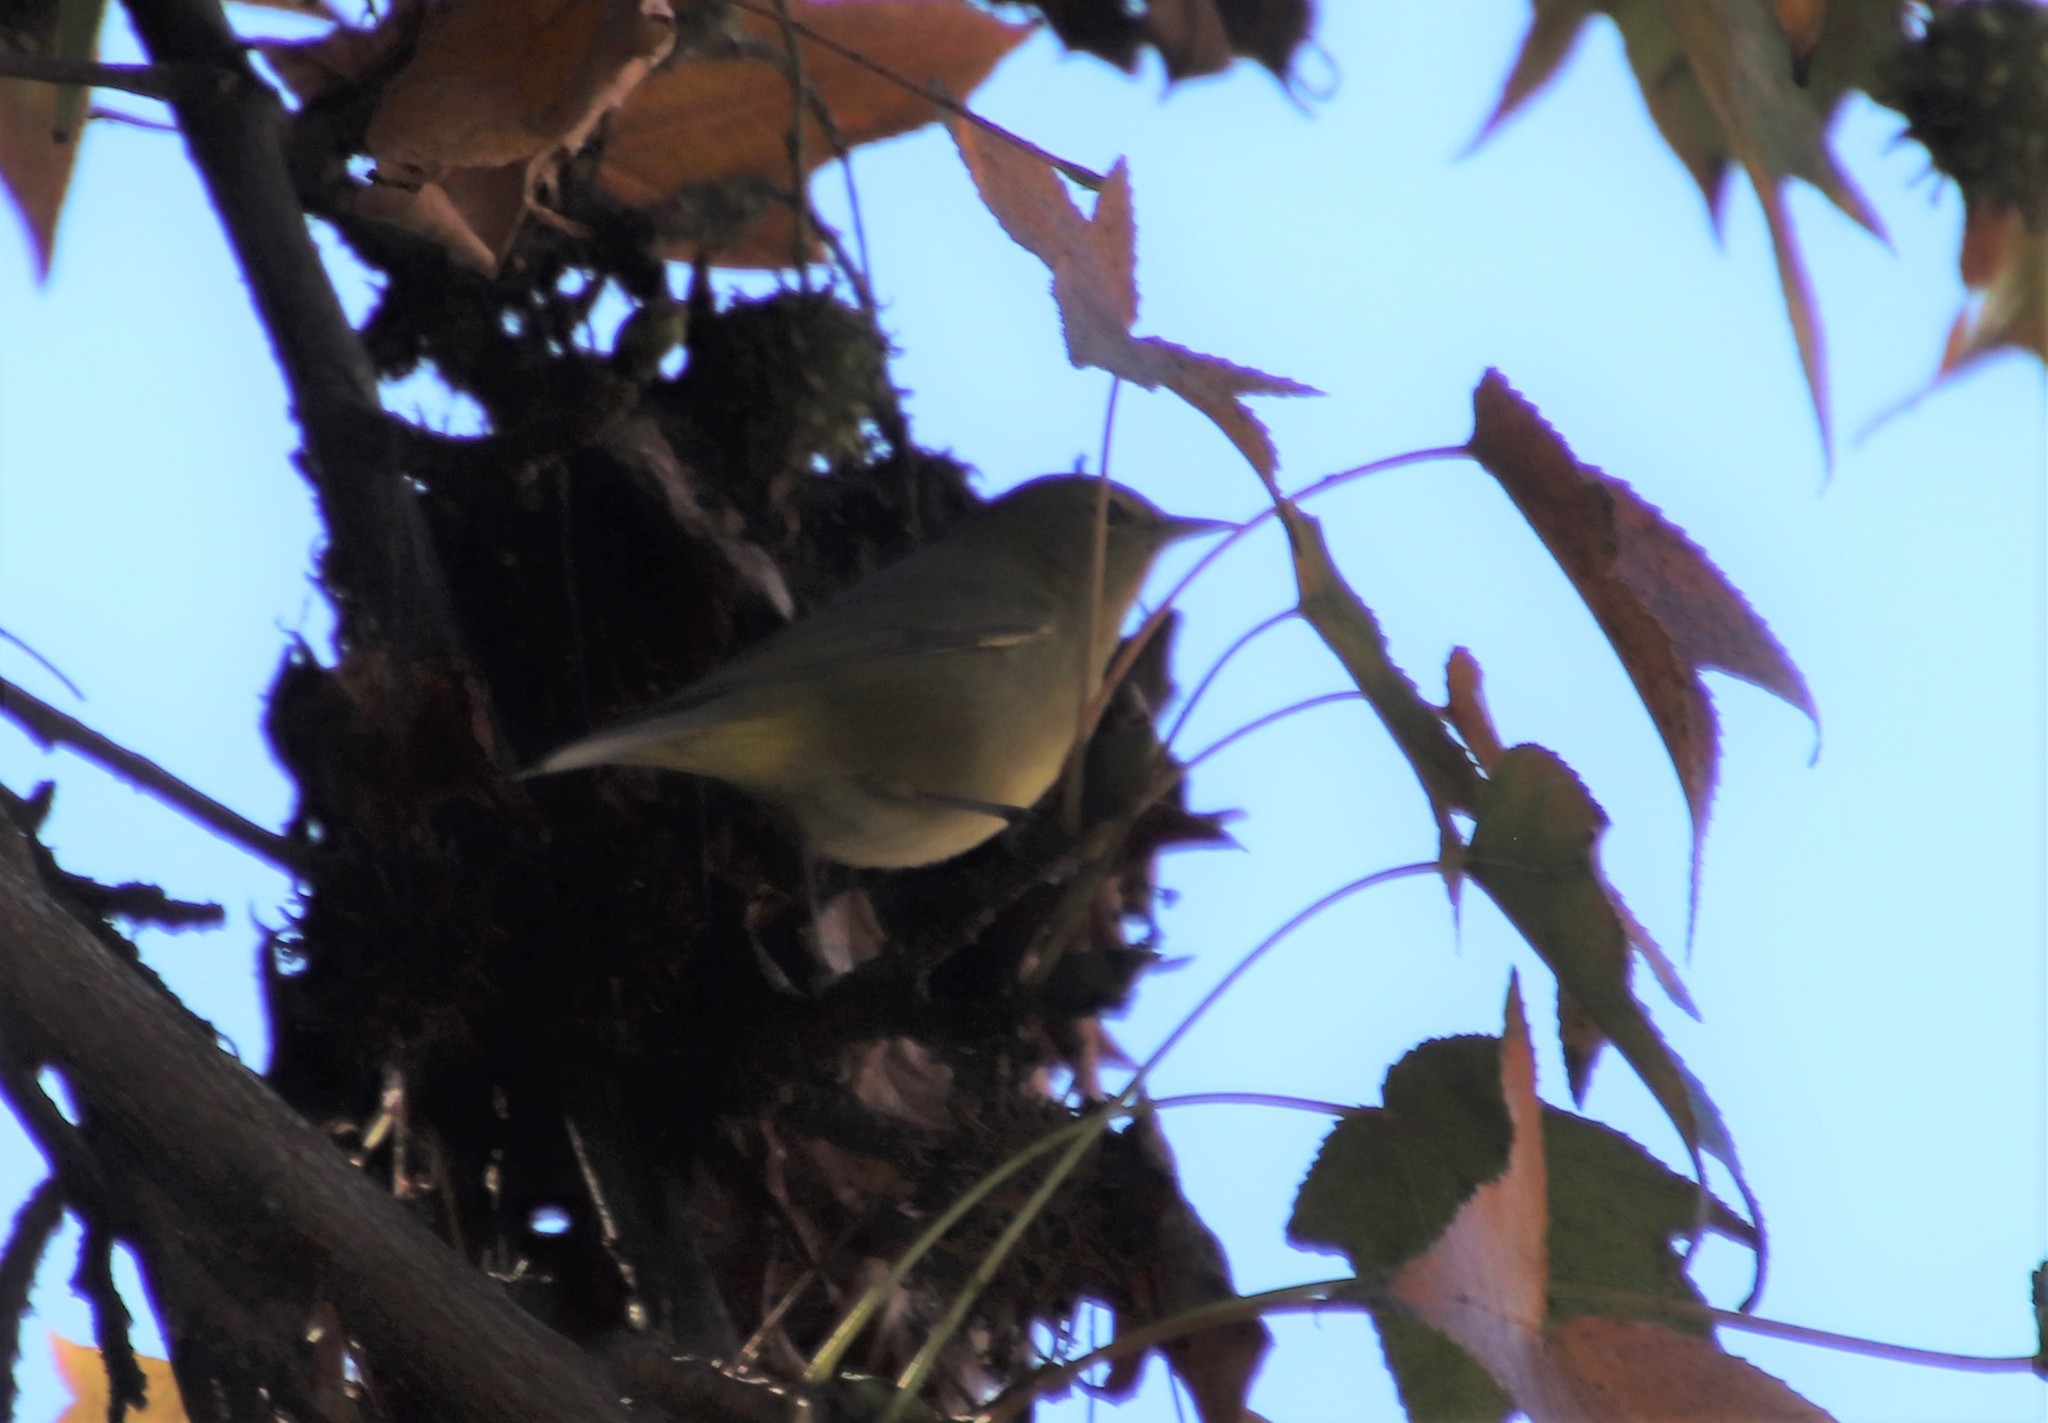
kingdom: Animalia
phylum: Chordata
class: Aves
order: Passeriformes
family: Parulidae
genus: Leiothlypis
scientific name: Leiothlypis celata
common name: Orange-crowned warbler
